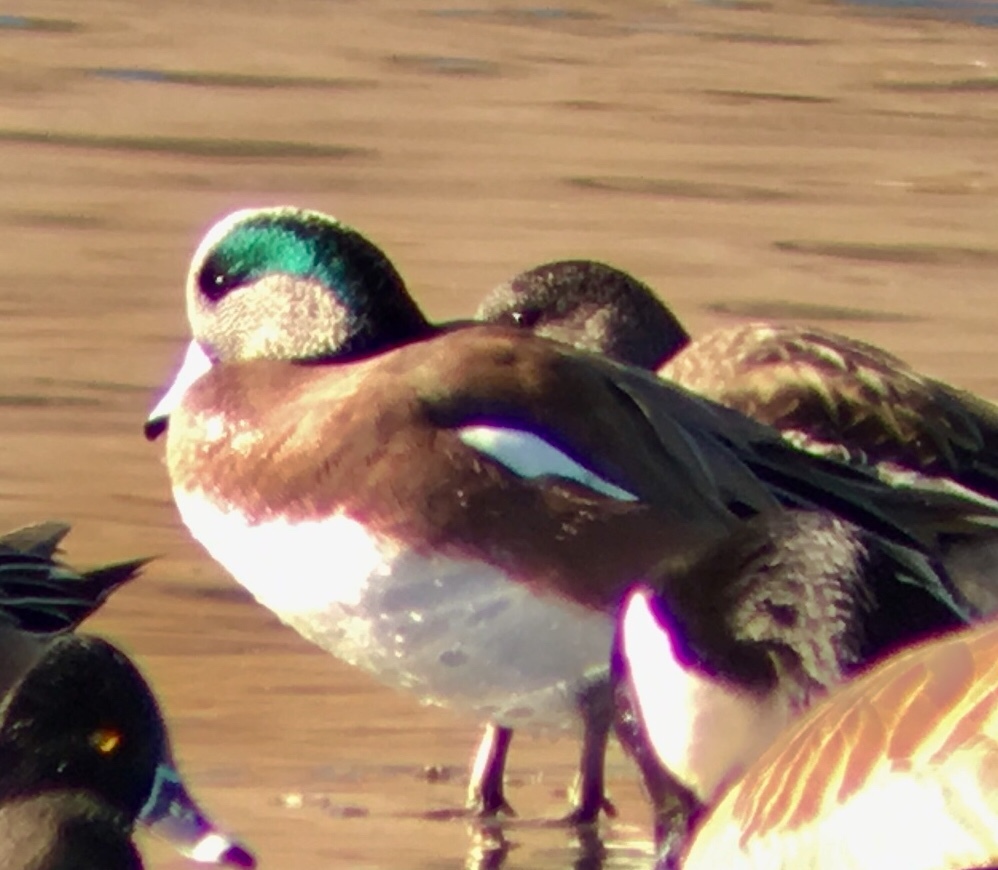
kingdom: Animalia
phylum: Chordata
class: Aves
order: Anseriformes
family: Anatidae
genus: Mareca
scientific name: Mareca americana
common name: American wigeon
